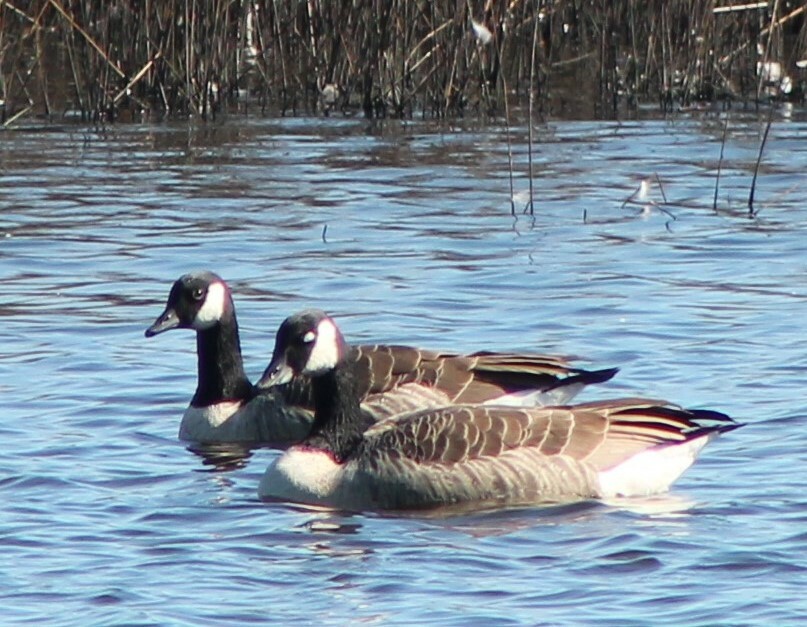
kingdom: Animalia
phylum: Chordata
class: Aves
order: Anseriformes
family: Anatidae
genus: Branta
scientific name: Branta canadensis
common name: Canada goose
